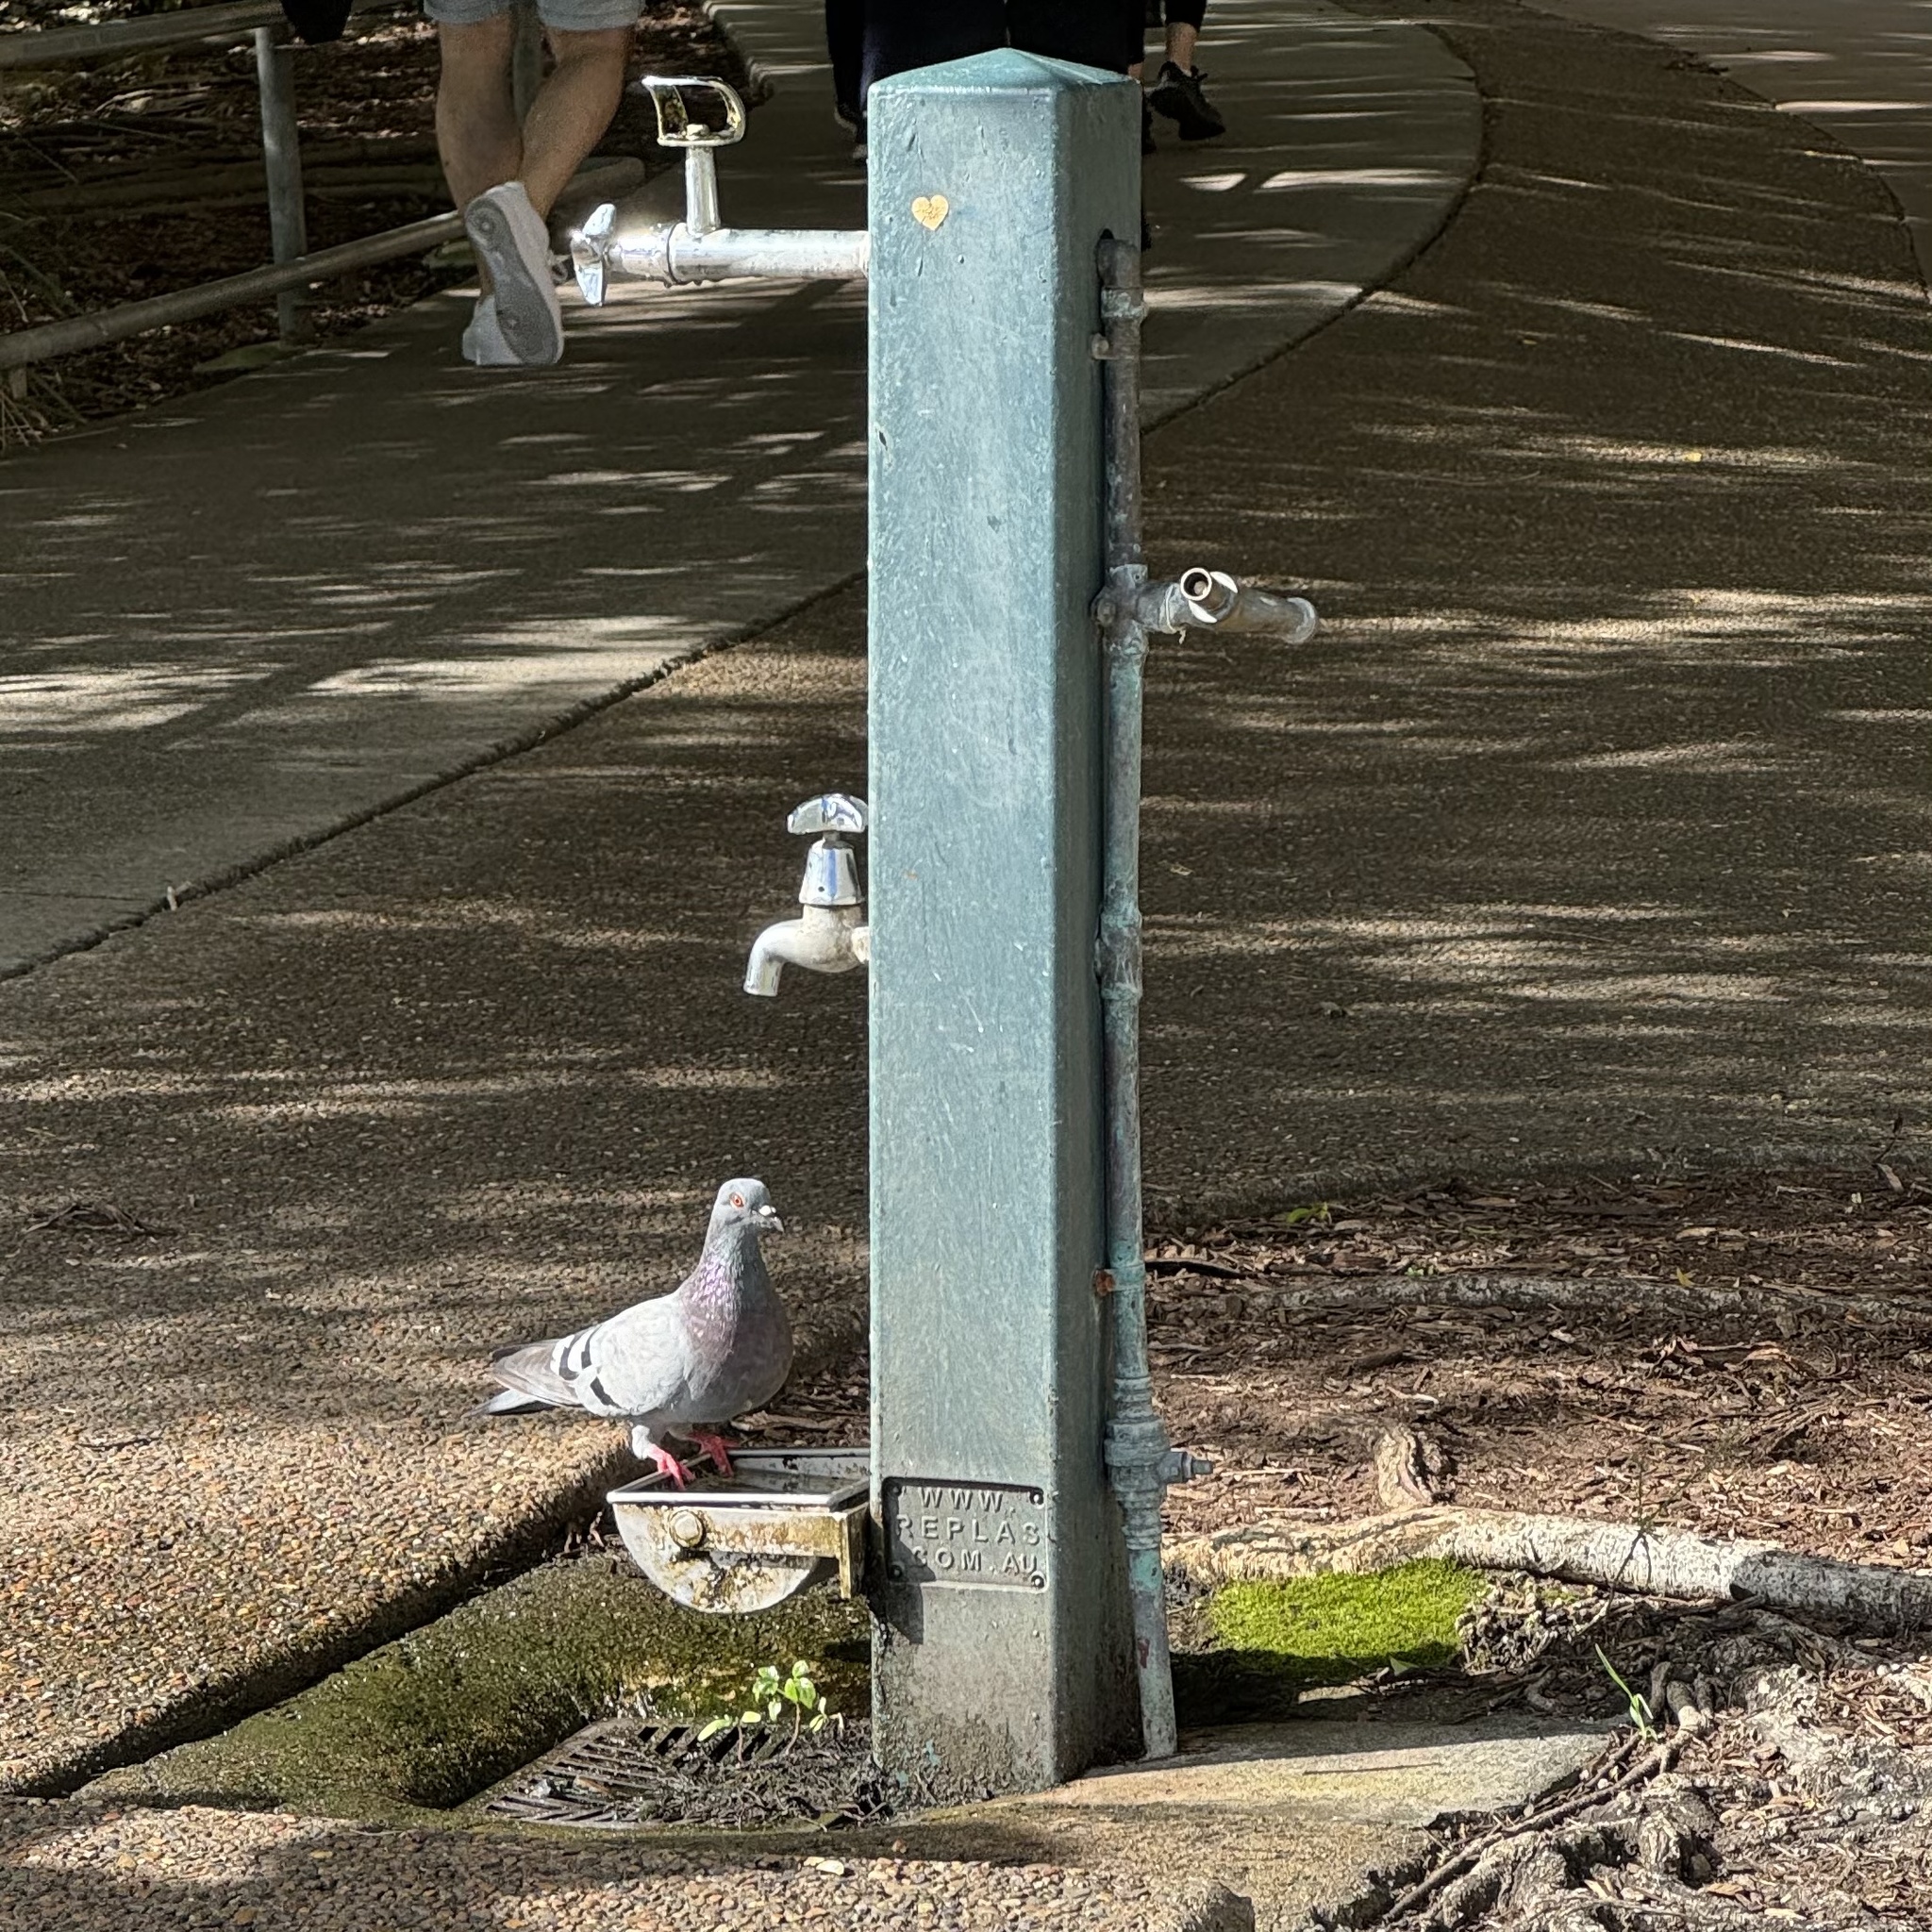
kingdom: Animalia
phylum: Chordata
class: Aves
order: Columbiformes
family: Columbidae
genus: Columba
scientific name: Columba livia
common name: Rock pigeon
